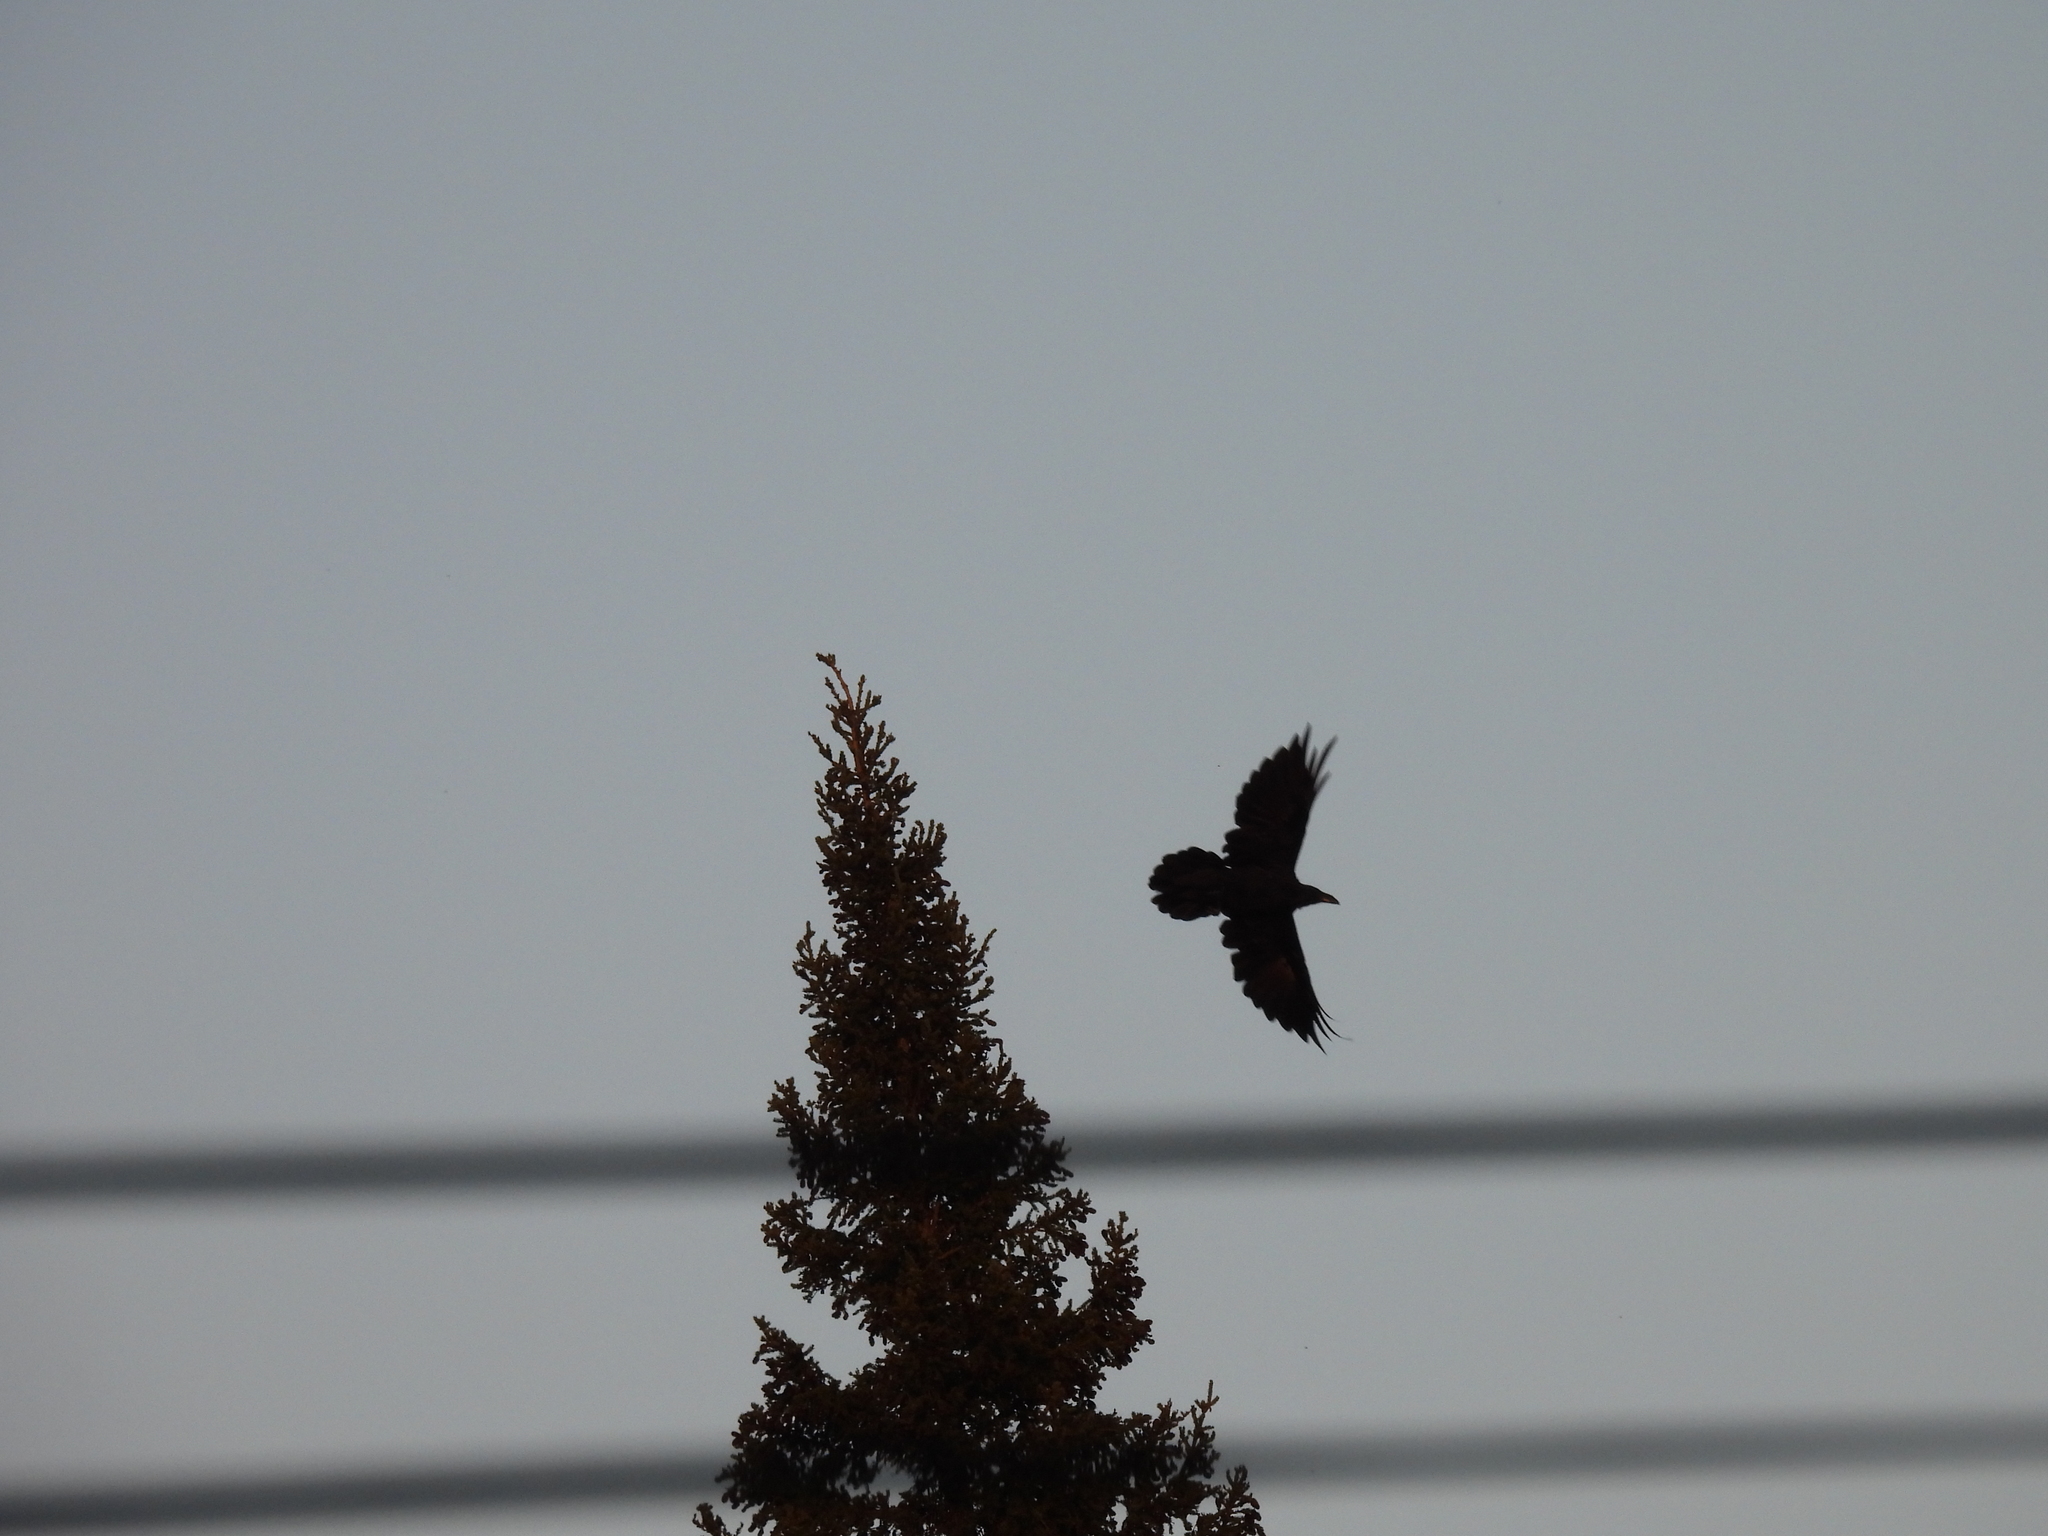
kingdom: Animalia
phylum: Chordata
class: Aves
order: Passeriformes
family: Corvidae
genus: Corvus
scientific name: Corvus corax
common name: Common raven
